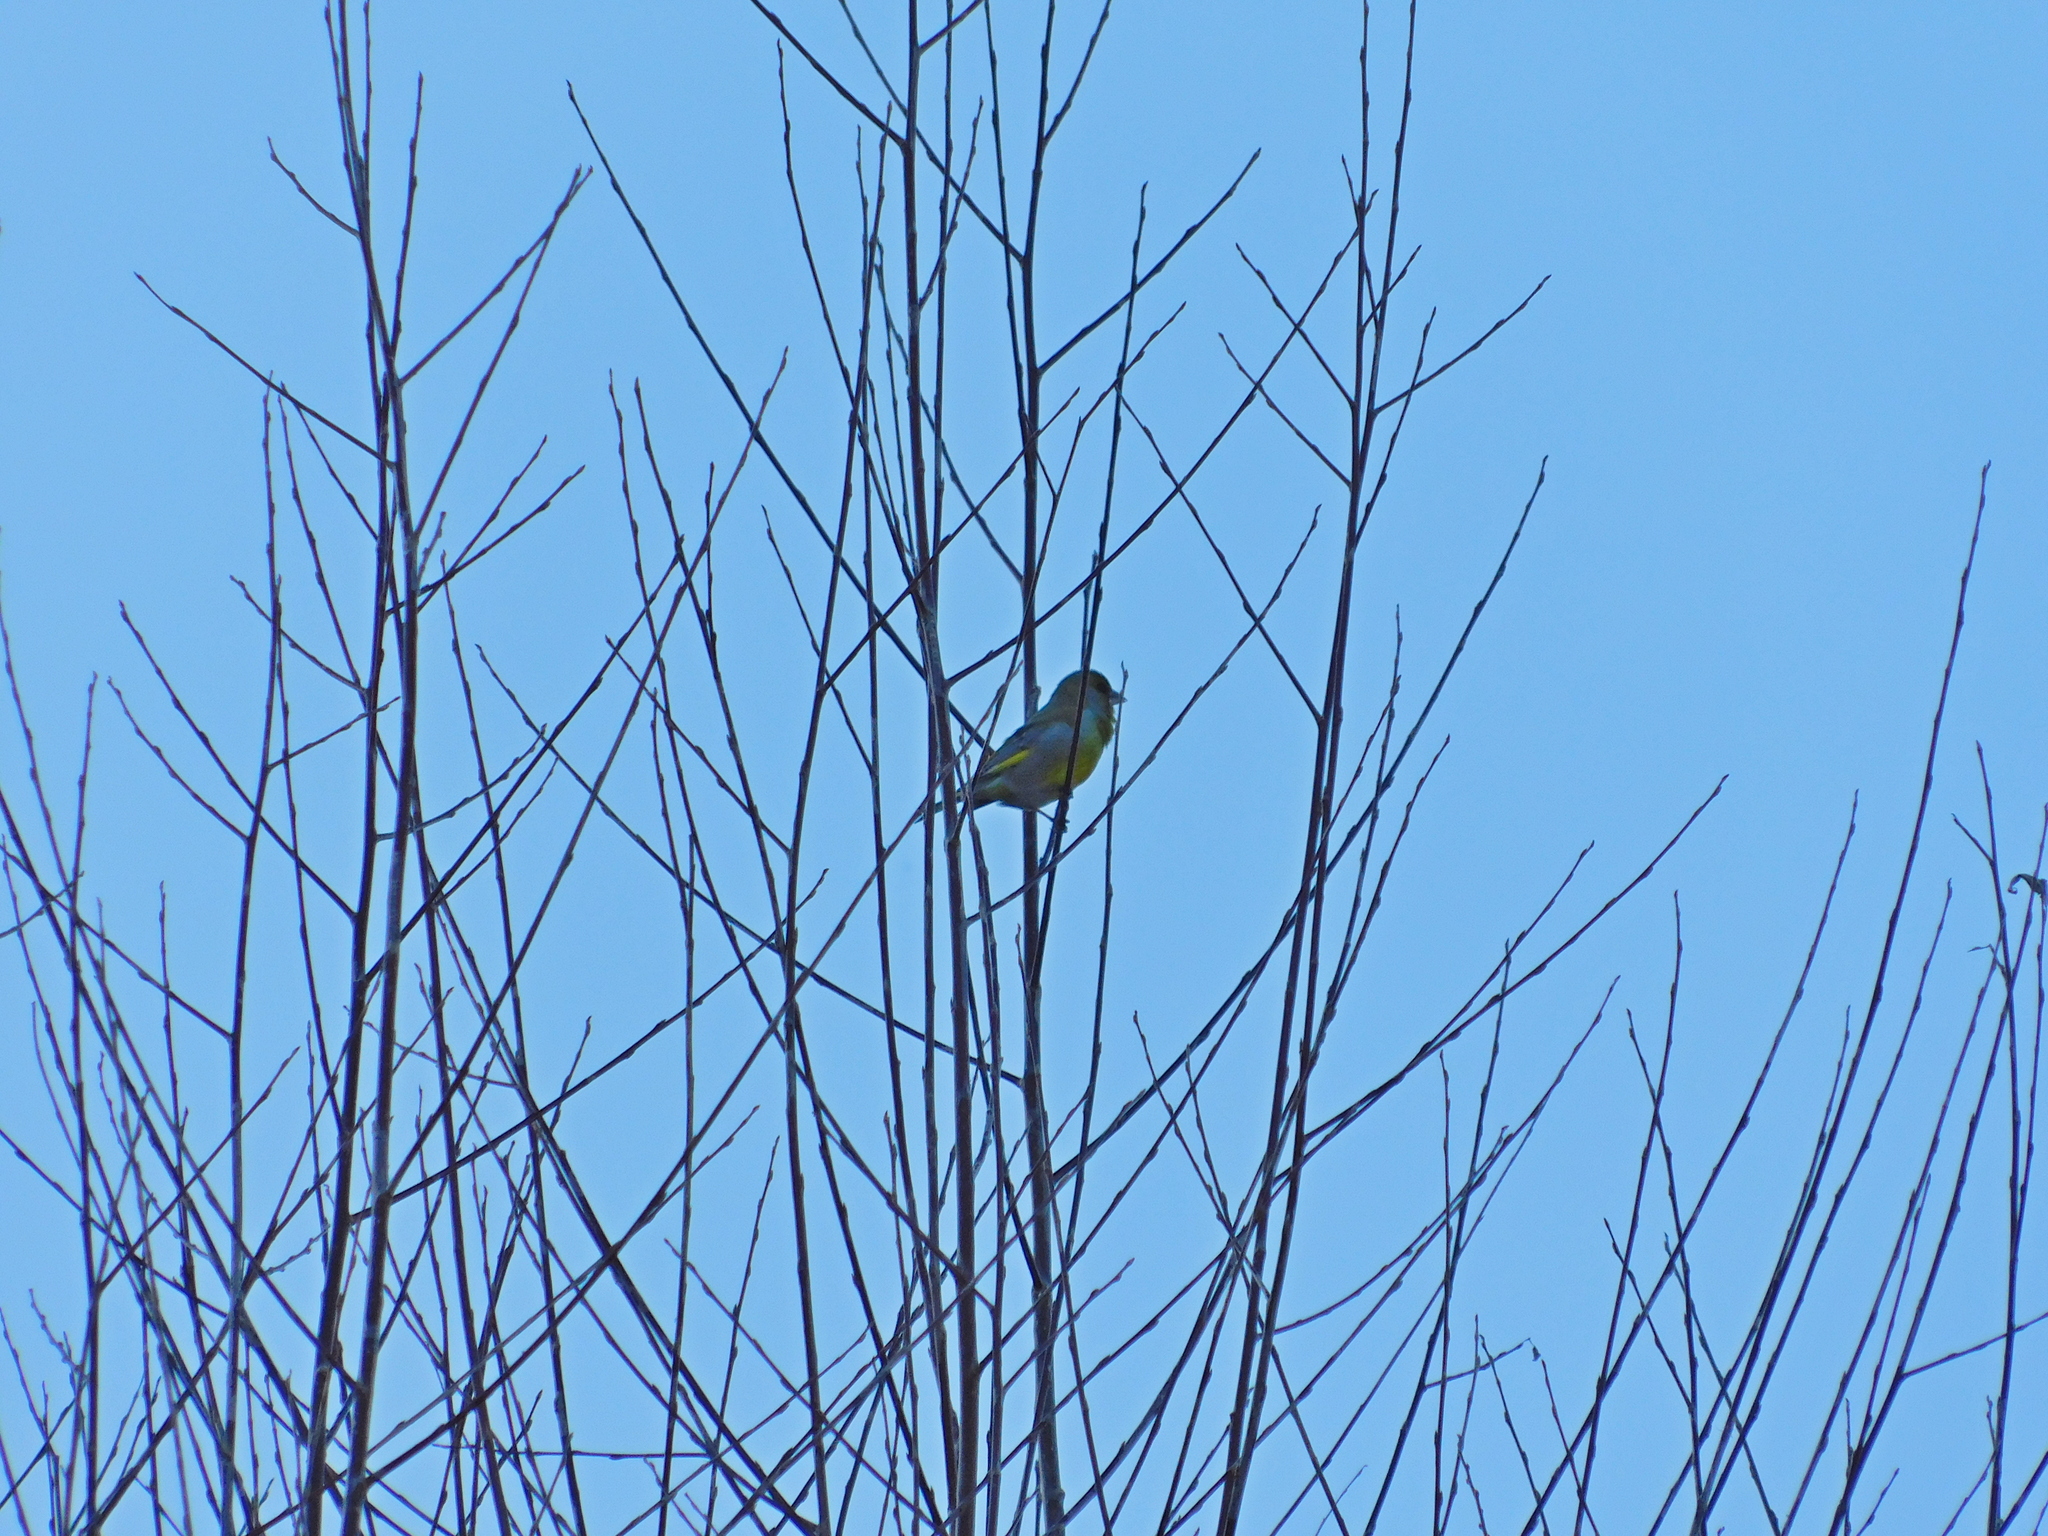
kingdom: Plantae
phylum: Tracheophyta
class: Liliopsida
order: Poales
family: Poaceae
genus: Chloris
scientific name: Chloris chloris
